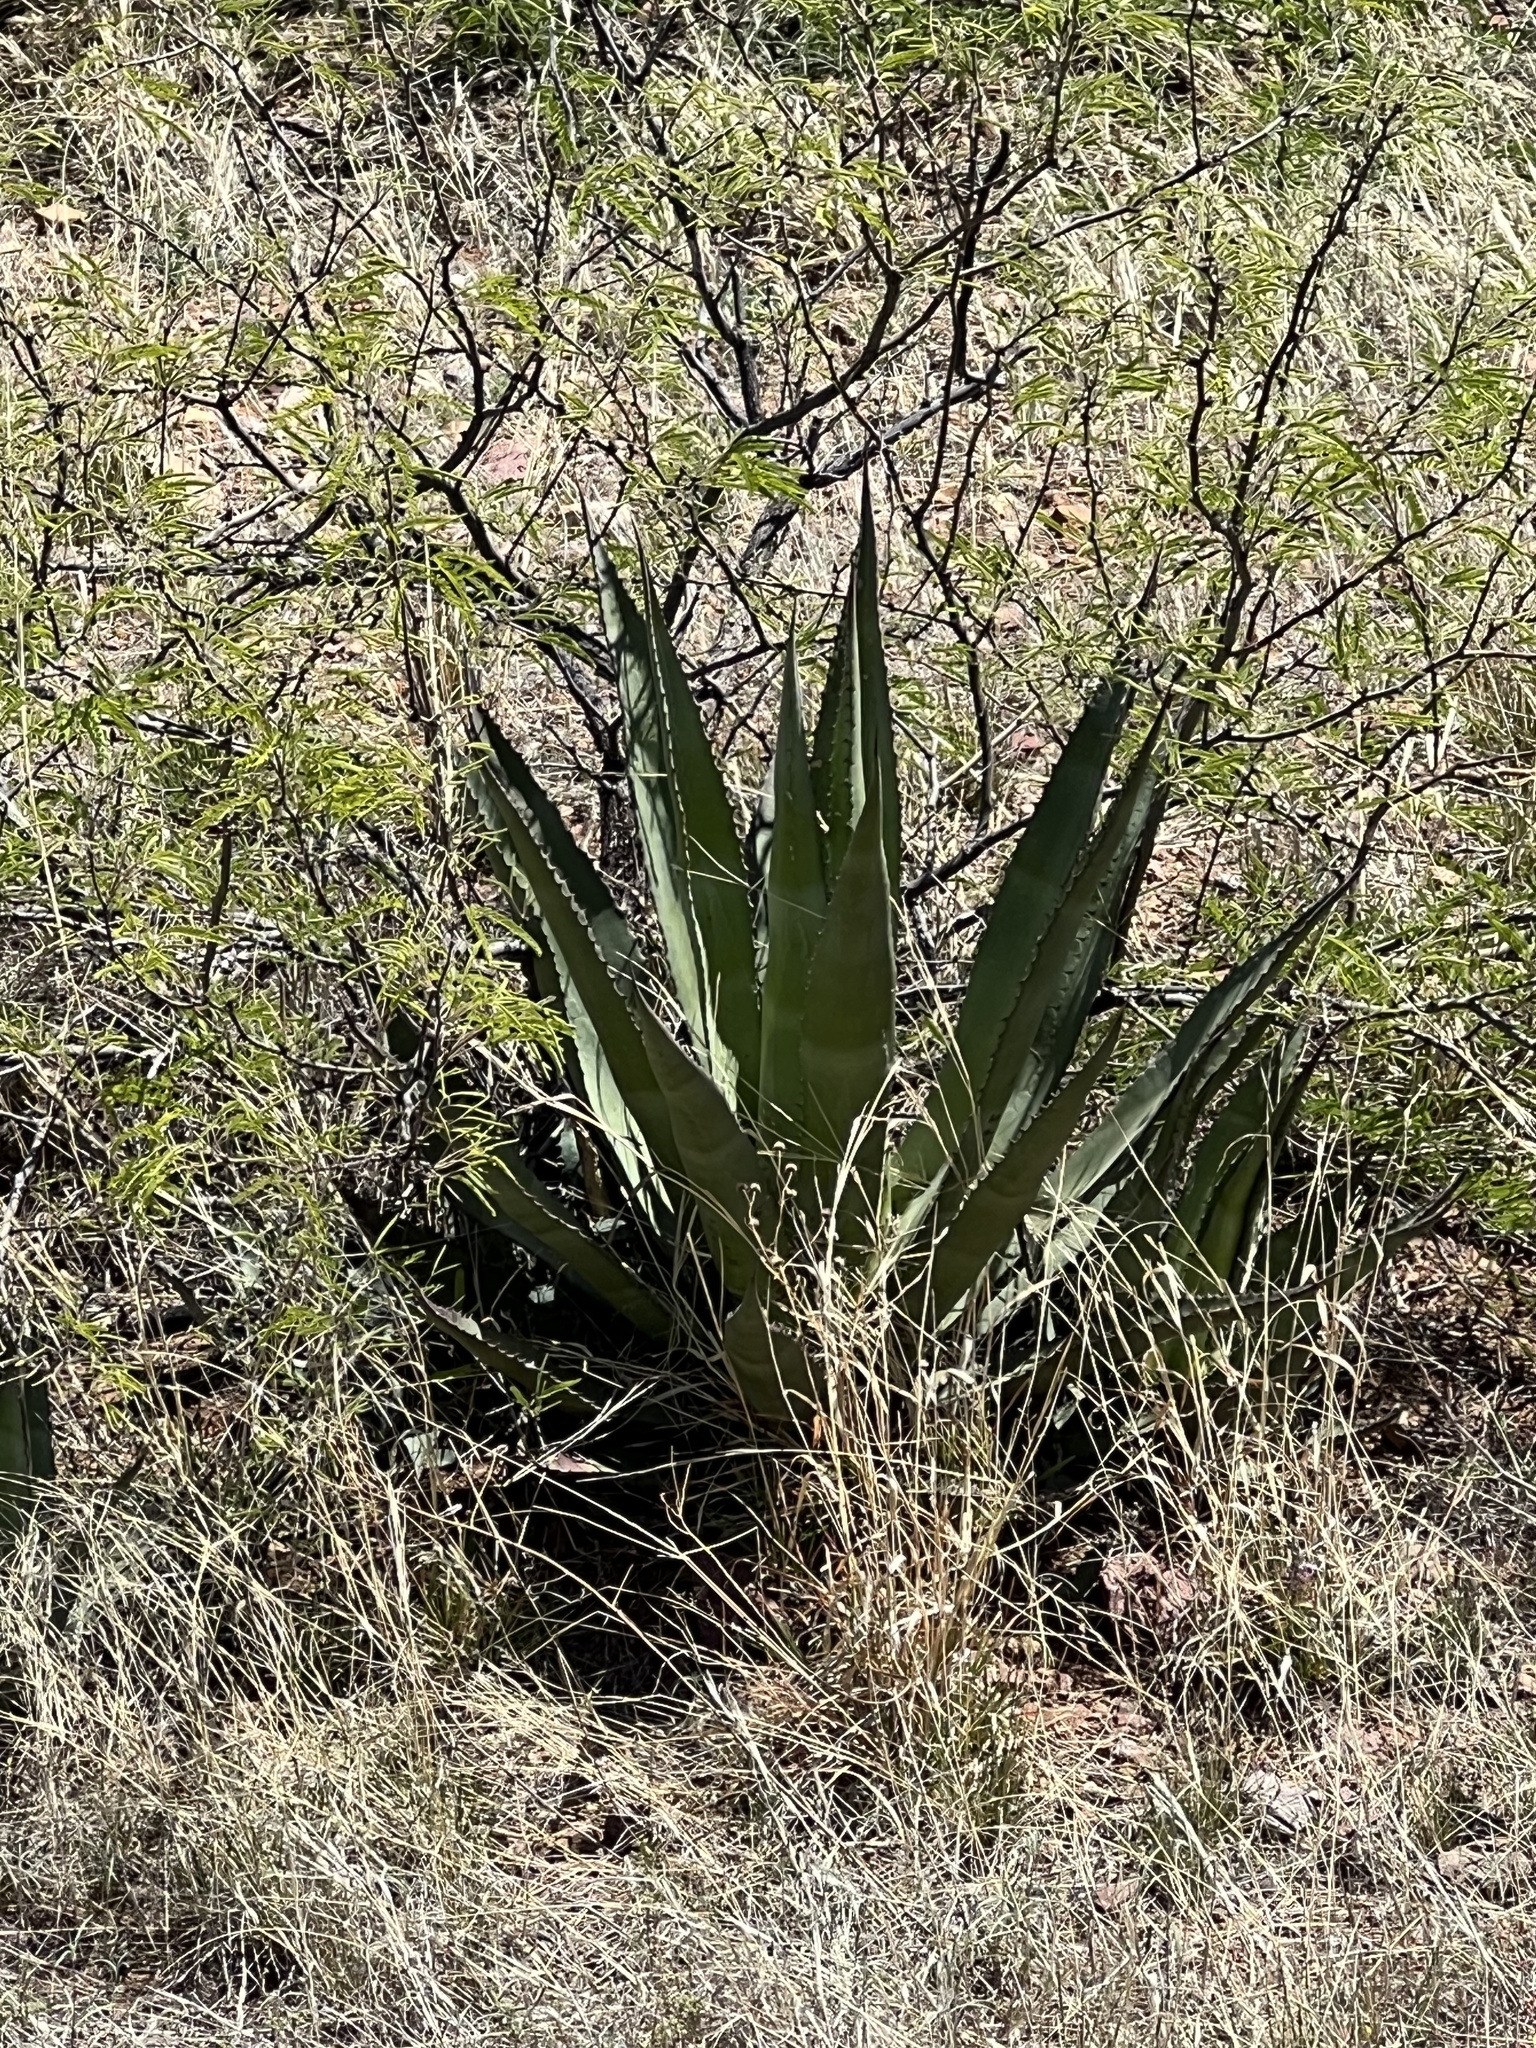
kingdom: Plantae
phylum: Tracheophyta
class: Liliopsida
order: Asparagales
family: Asparagaceae
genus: Agave
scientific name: Agave palmeri
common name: Palmer agave
